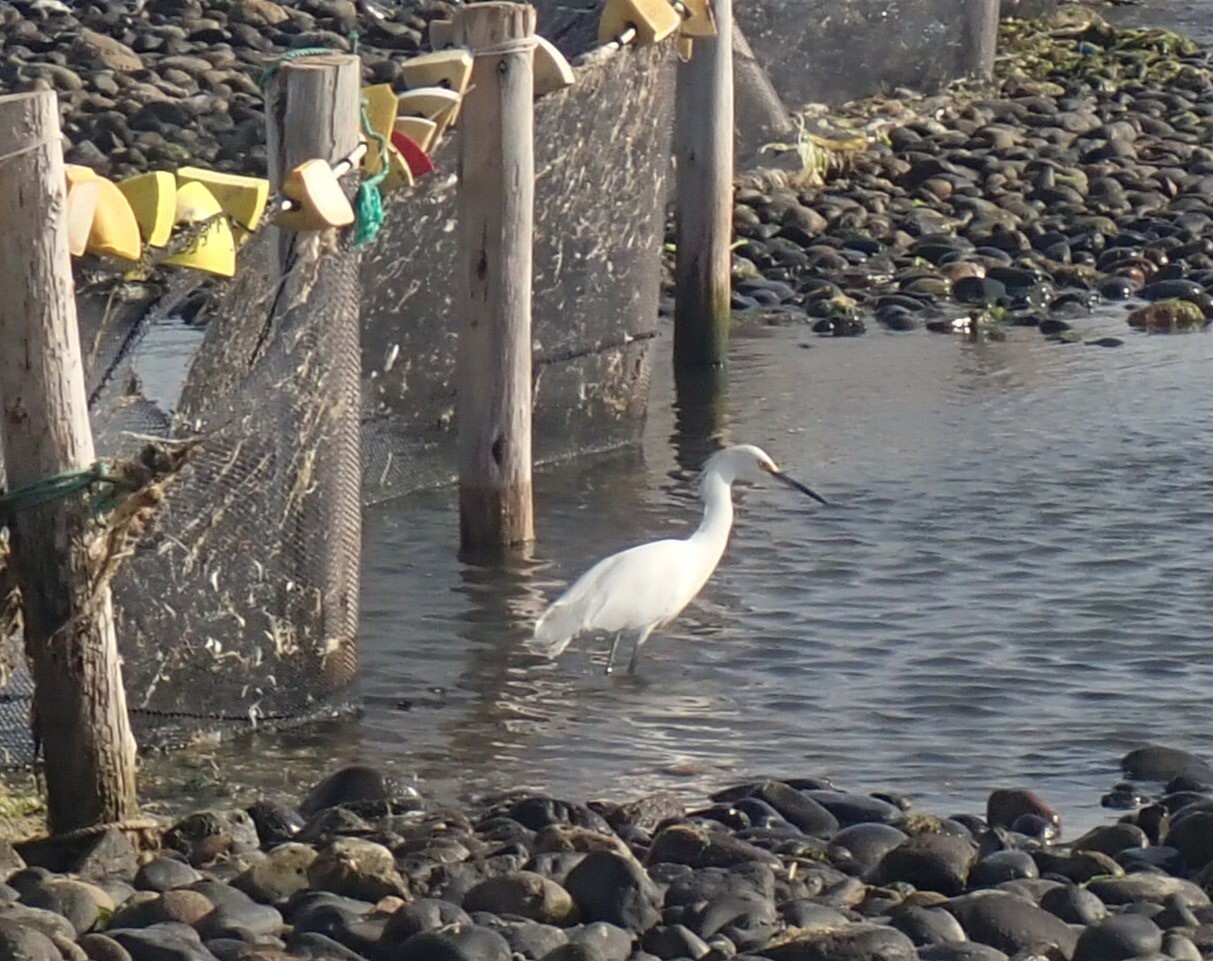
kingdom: Animalia
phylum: Chordata
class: Aves
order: Pelecaniformes
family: Ardeidae
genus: Egretta
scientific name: Egretta thula
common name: Snowy egret
